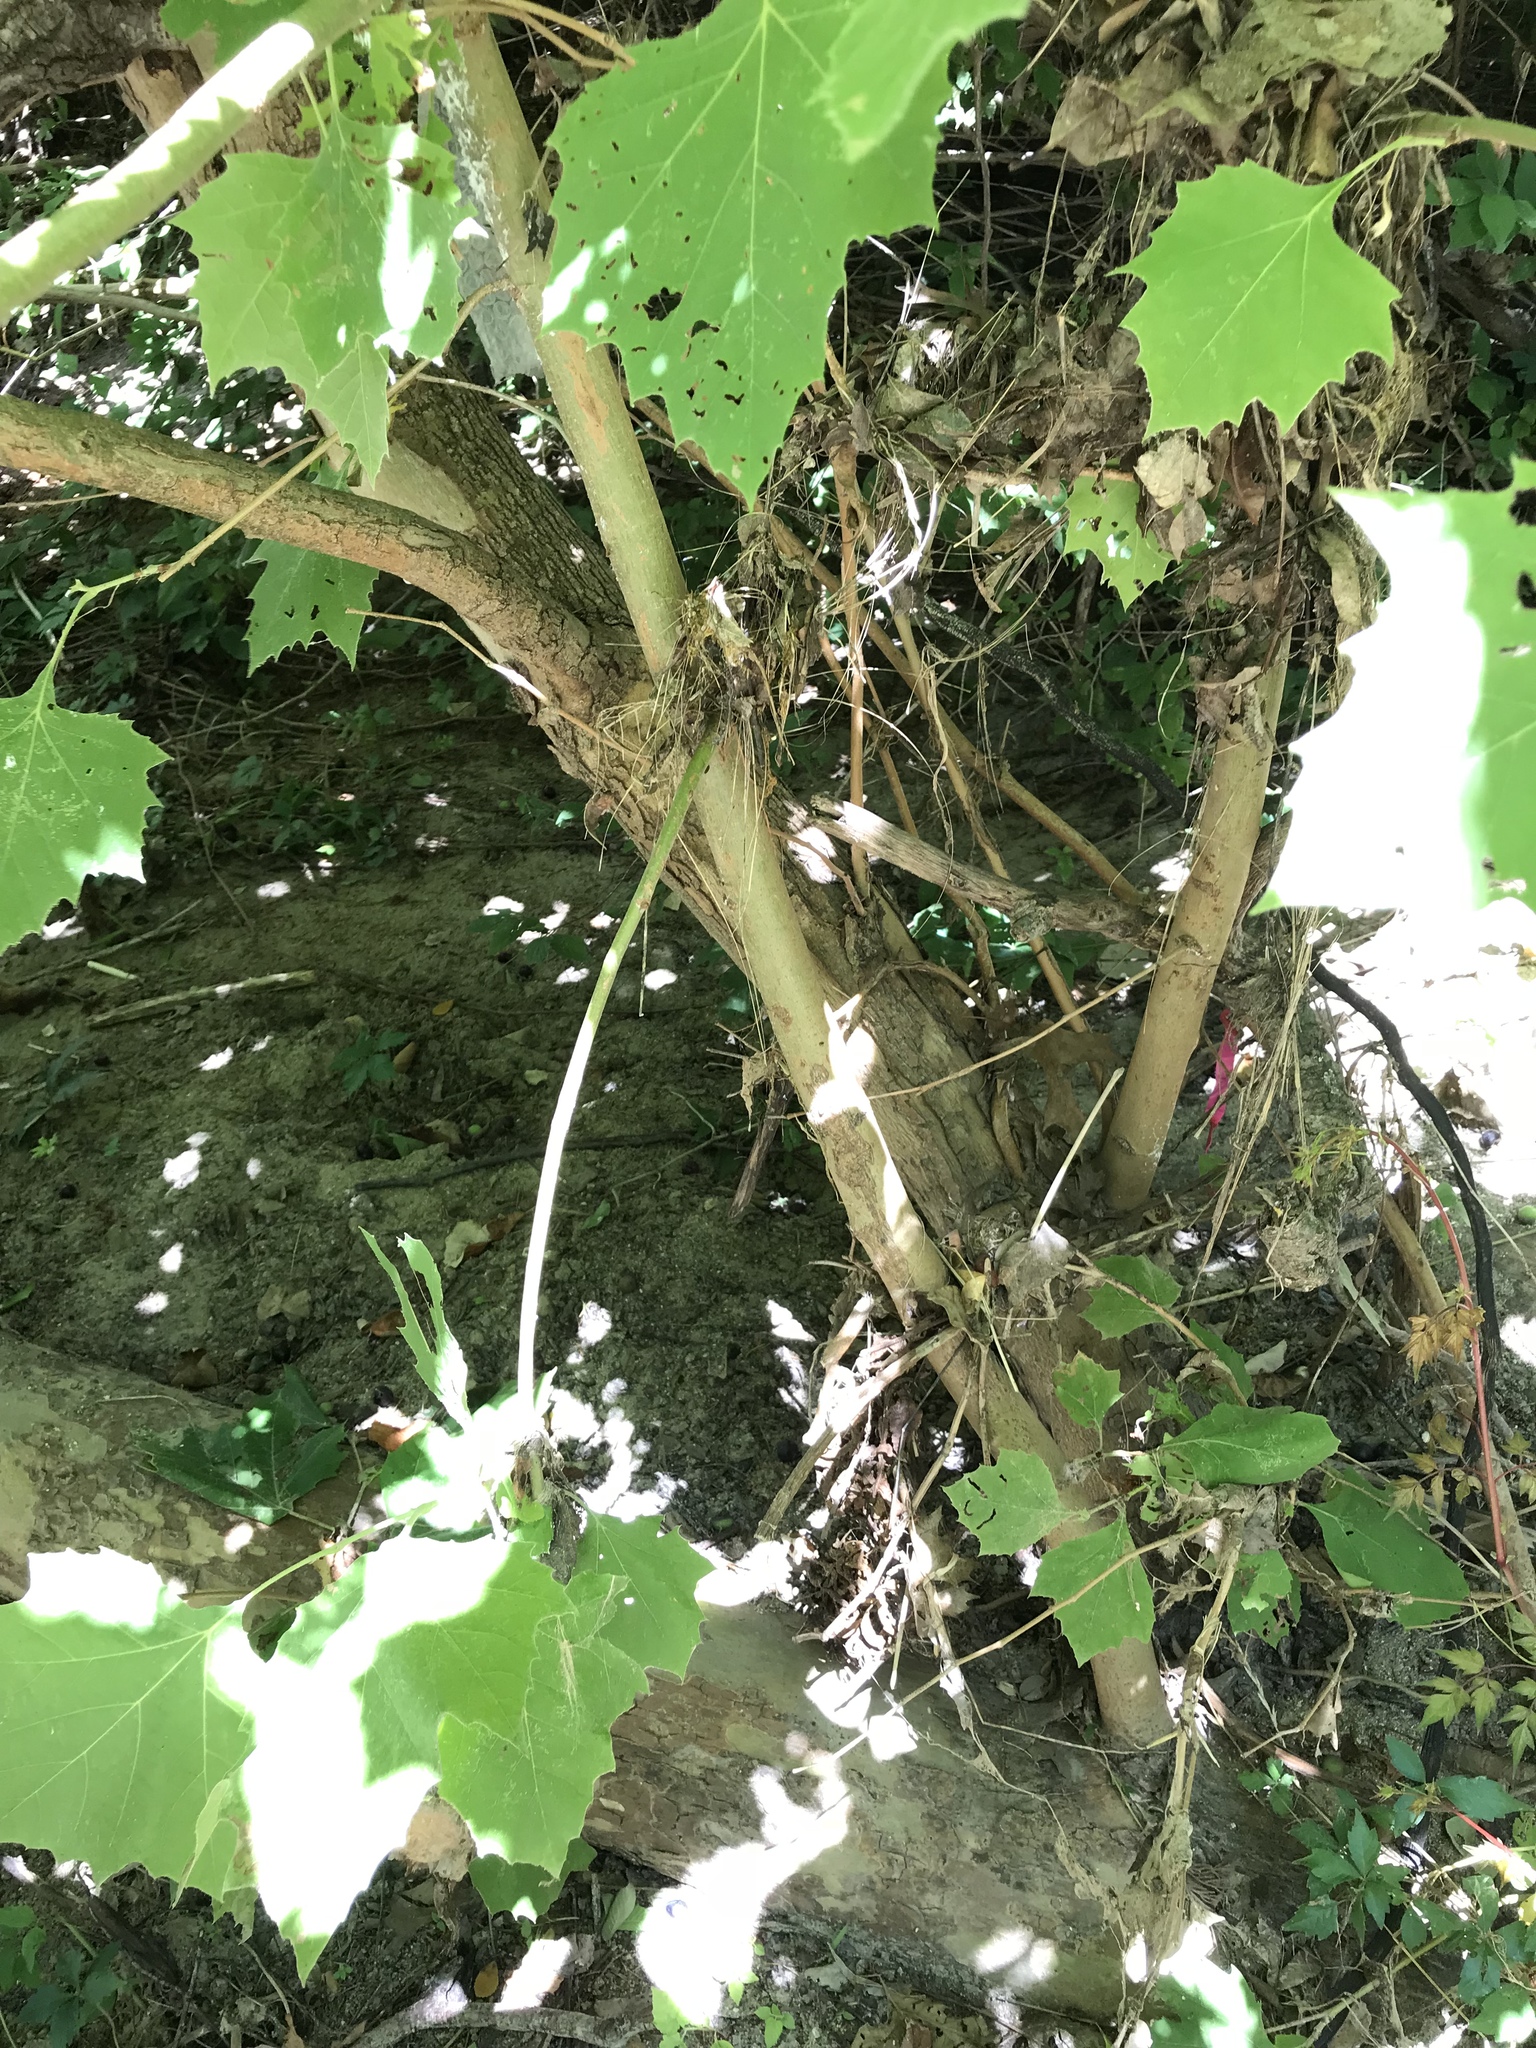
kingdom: Plantae
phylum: Tracheophyta
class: Magnoliopsida
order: Proteales
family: Platanaceae
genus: Platanus
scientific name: Platanus occidentalis
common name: American sycamore
